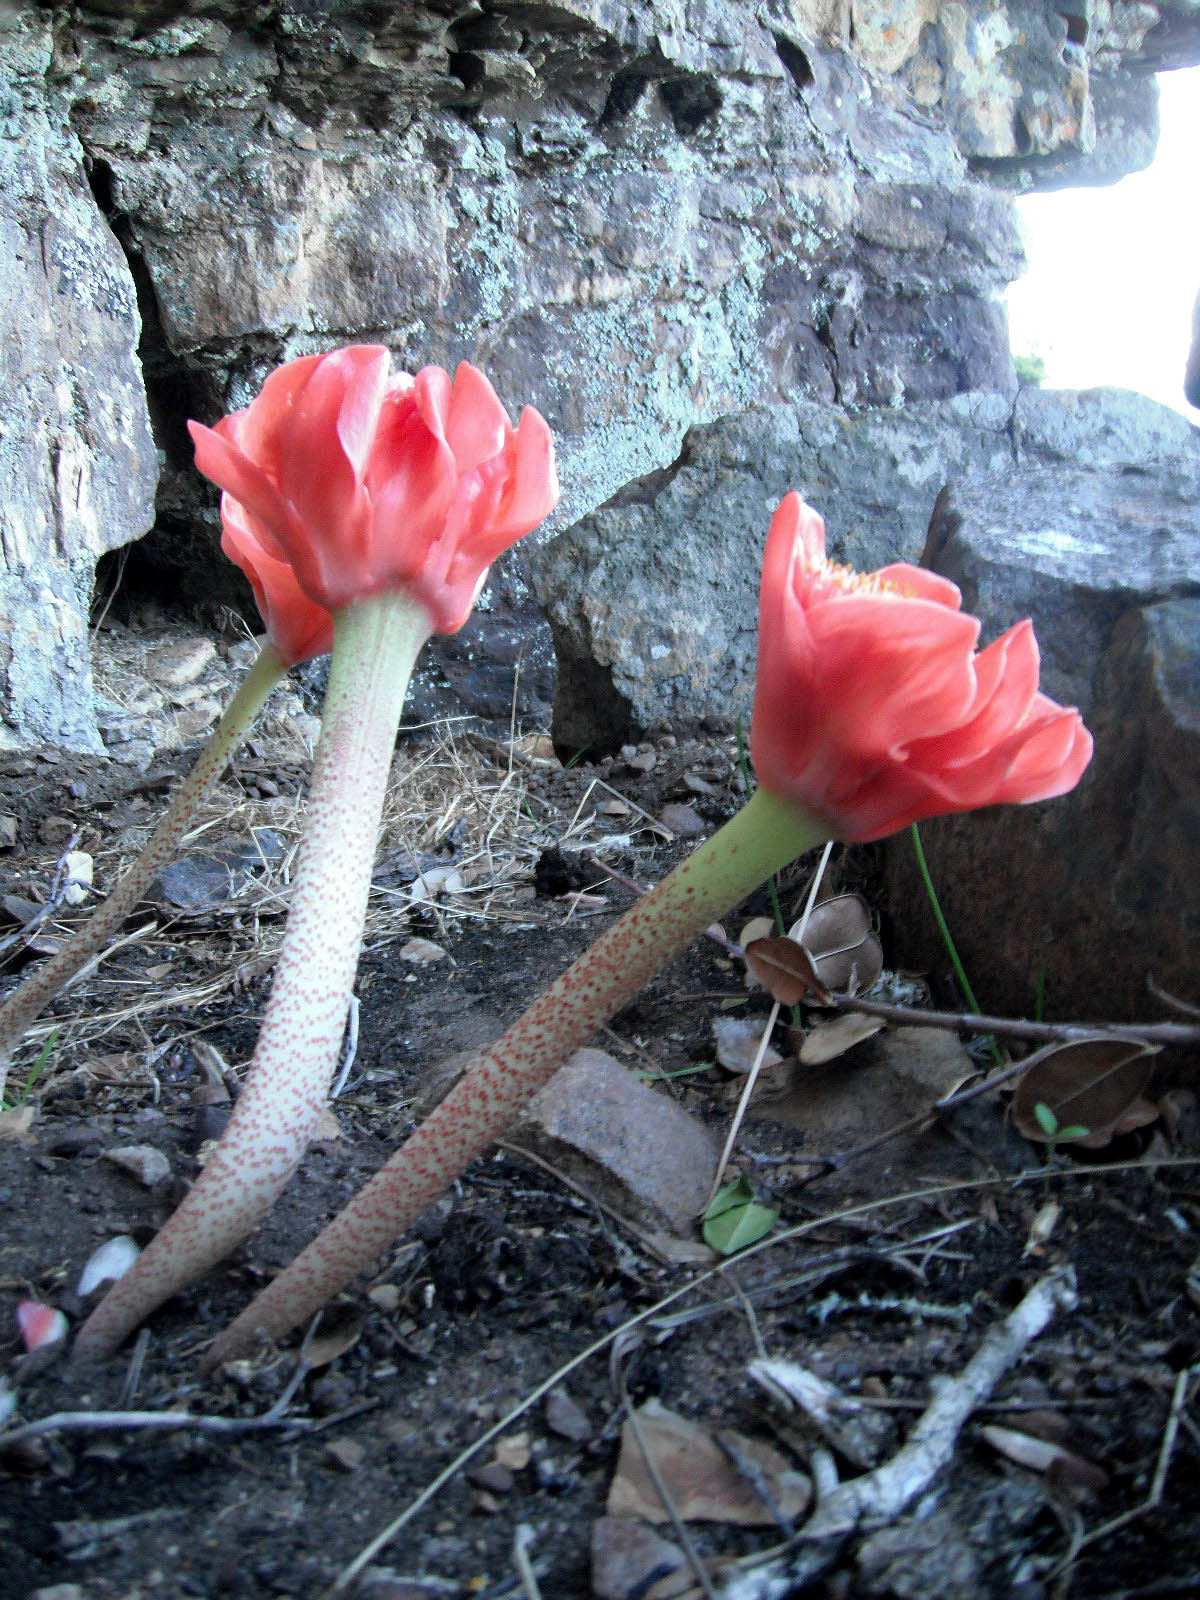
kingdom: Plantae
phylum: Tracheophyta
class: Liliopsida
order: Asparagales
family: Amaryllidaceae
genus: Haemanthus
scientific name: Haemanthus coccineus
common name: Cape-tulip
